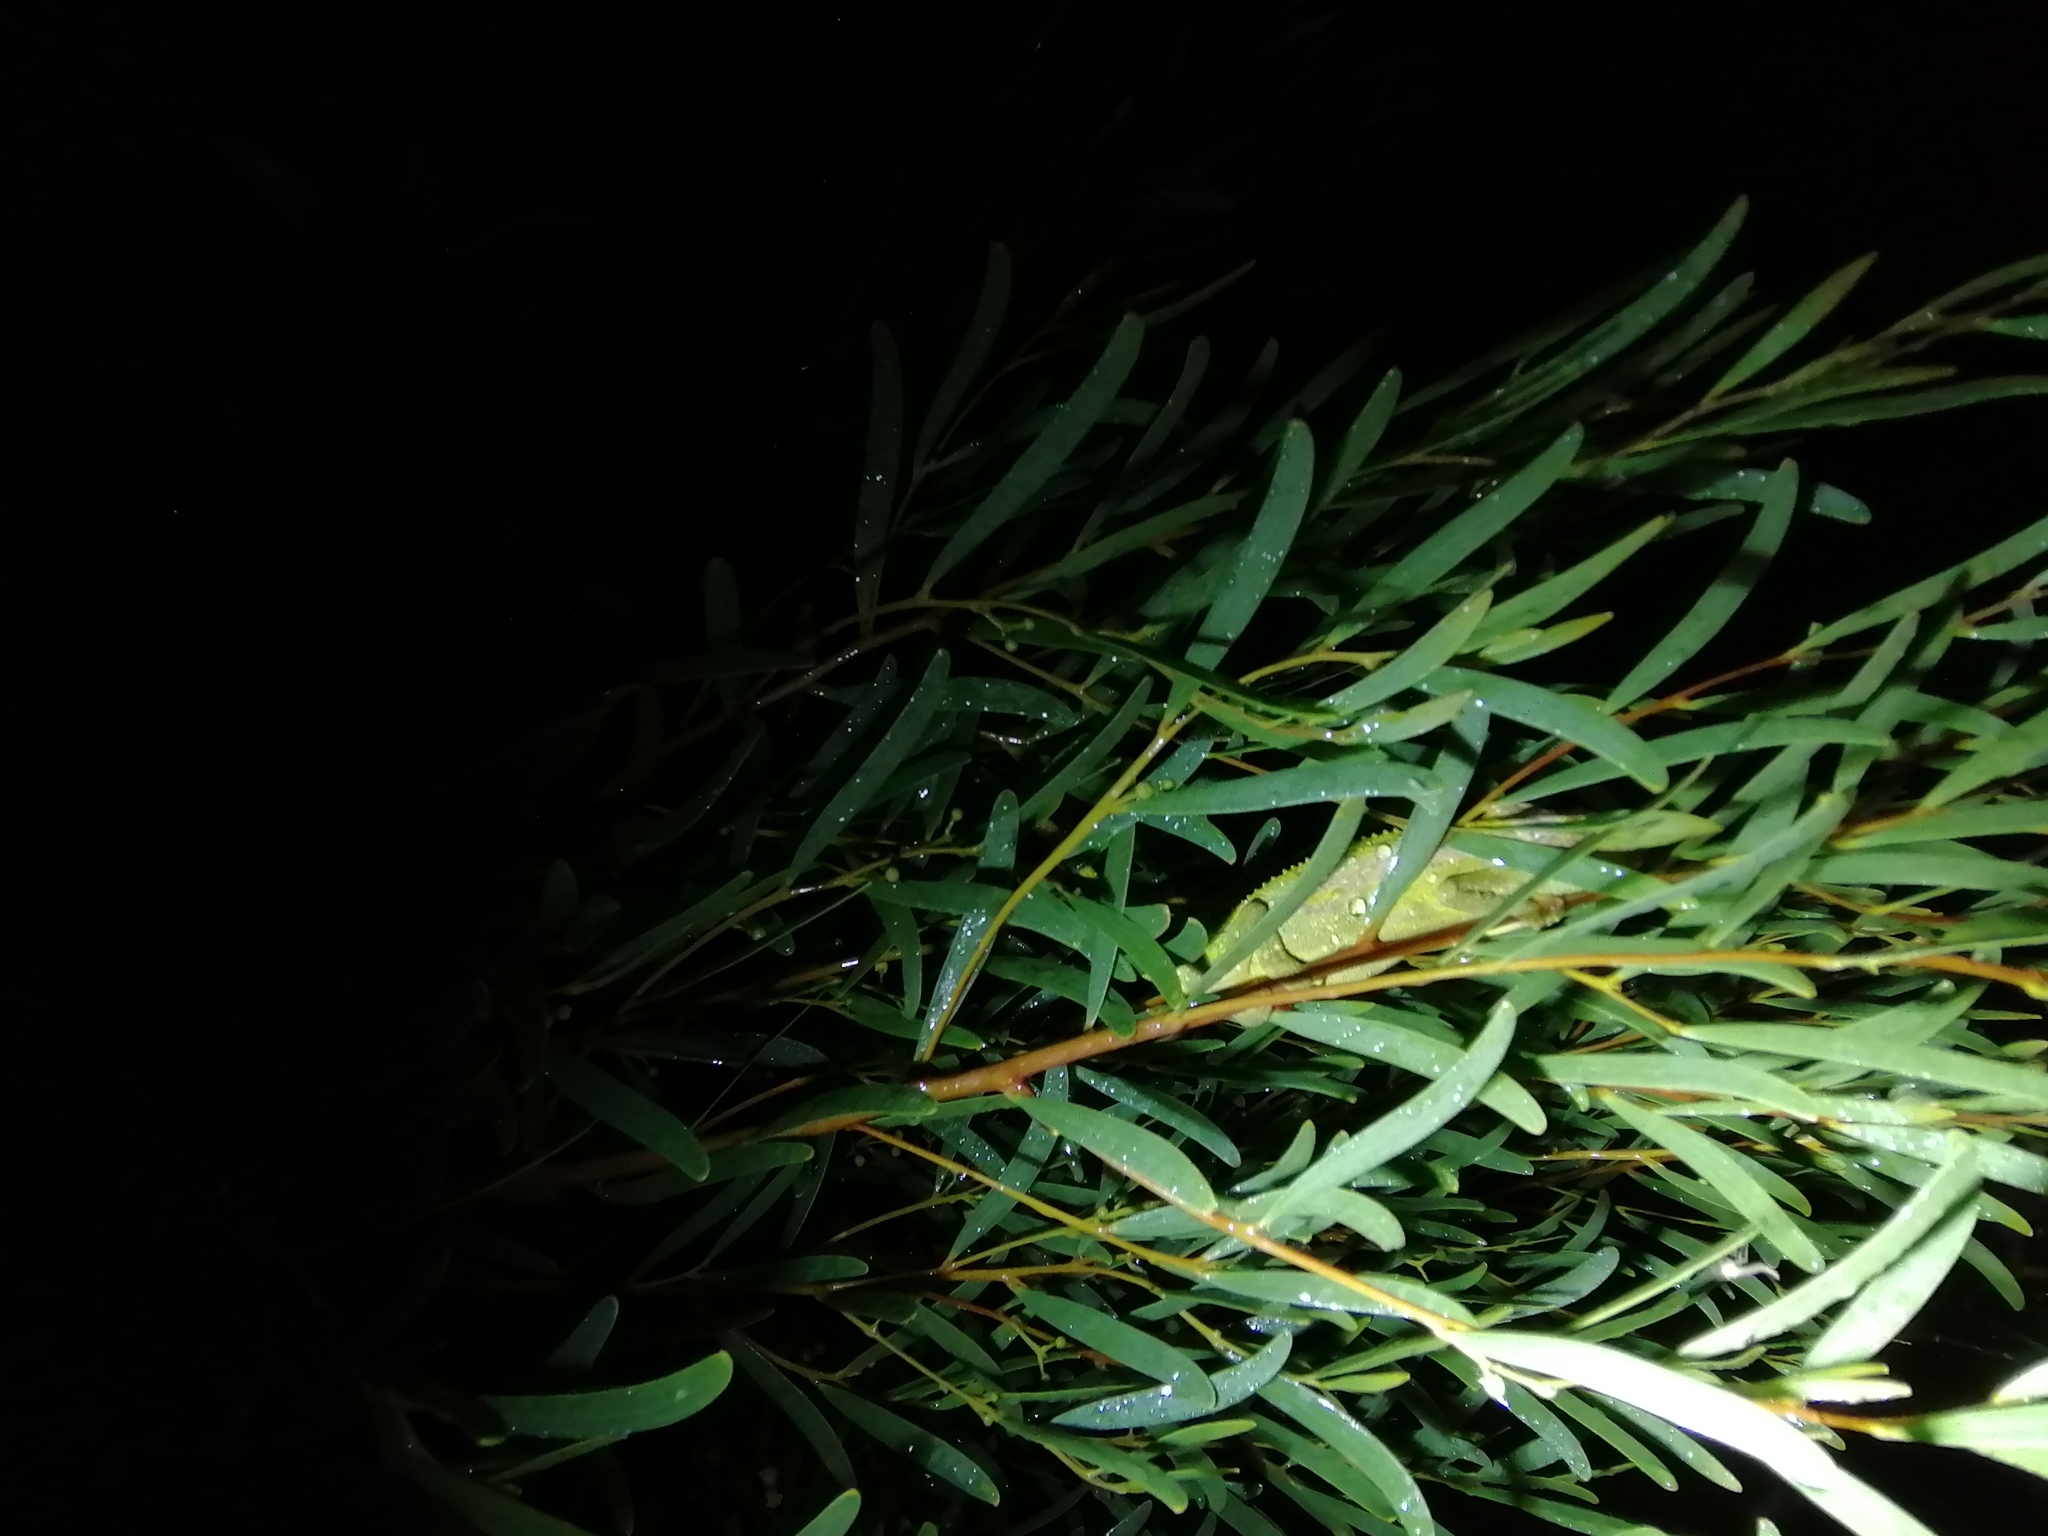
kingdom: Animalia
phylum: Chordata
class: Squamata
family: Chamaeleonidae
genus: Bradypodion
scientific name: Bradypodion pumilum
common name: Cape dwarf chameleon
